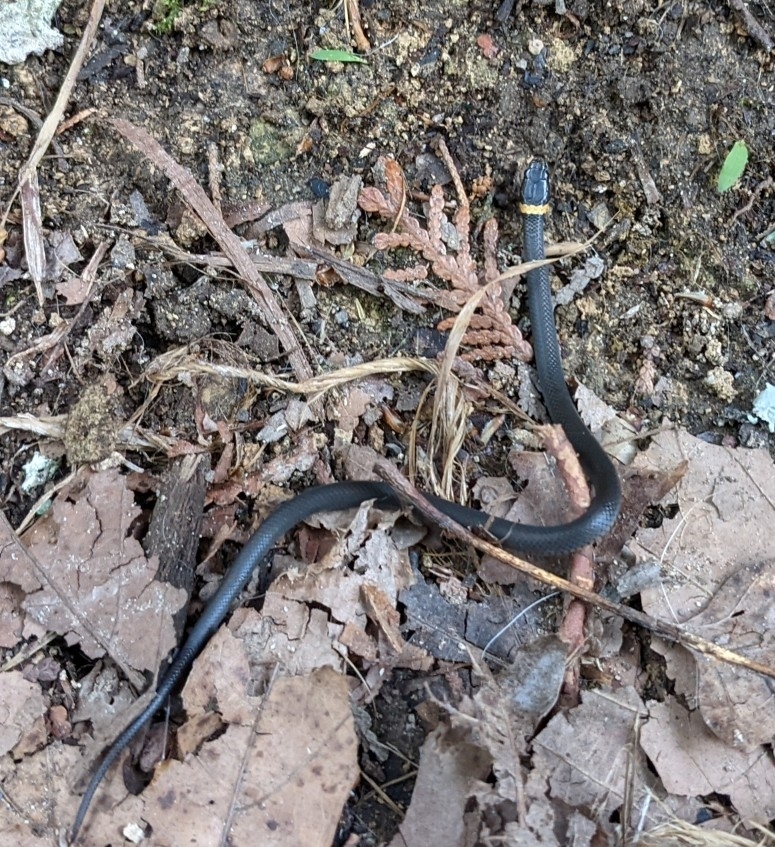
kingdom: Animalia
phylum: Chordata
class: Squamata
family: Colubridae
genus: Diadophis
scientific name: Diadophis punctatus
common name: Ringneck snake
